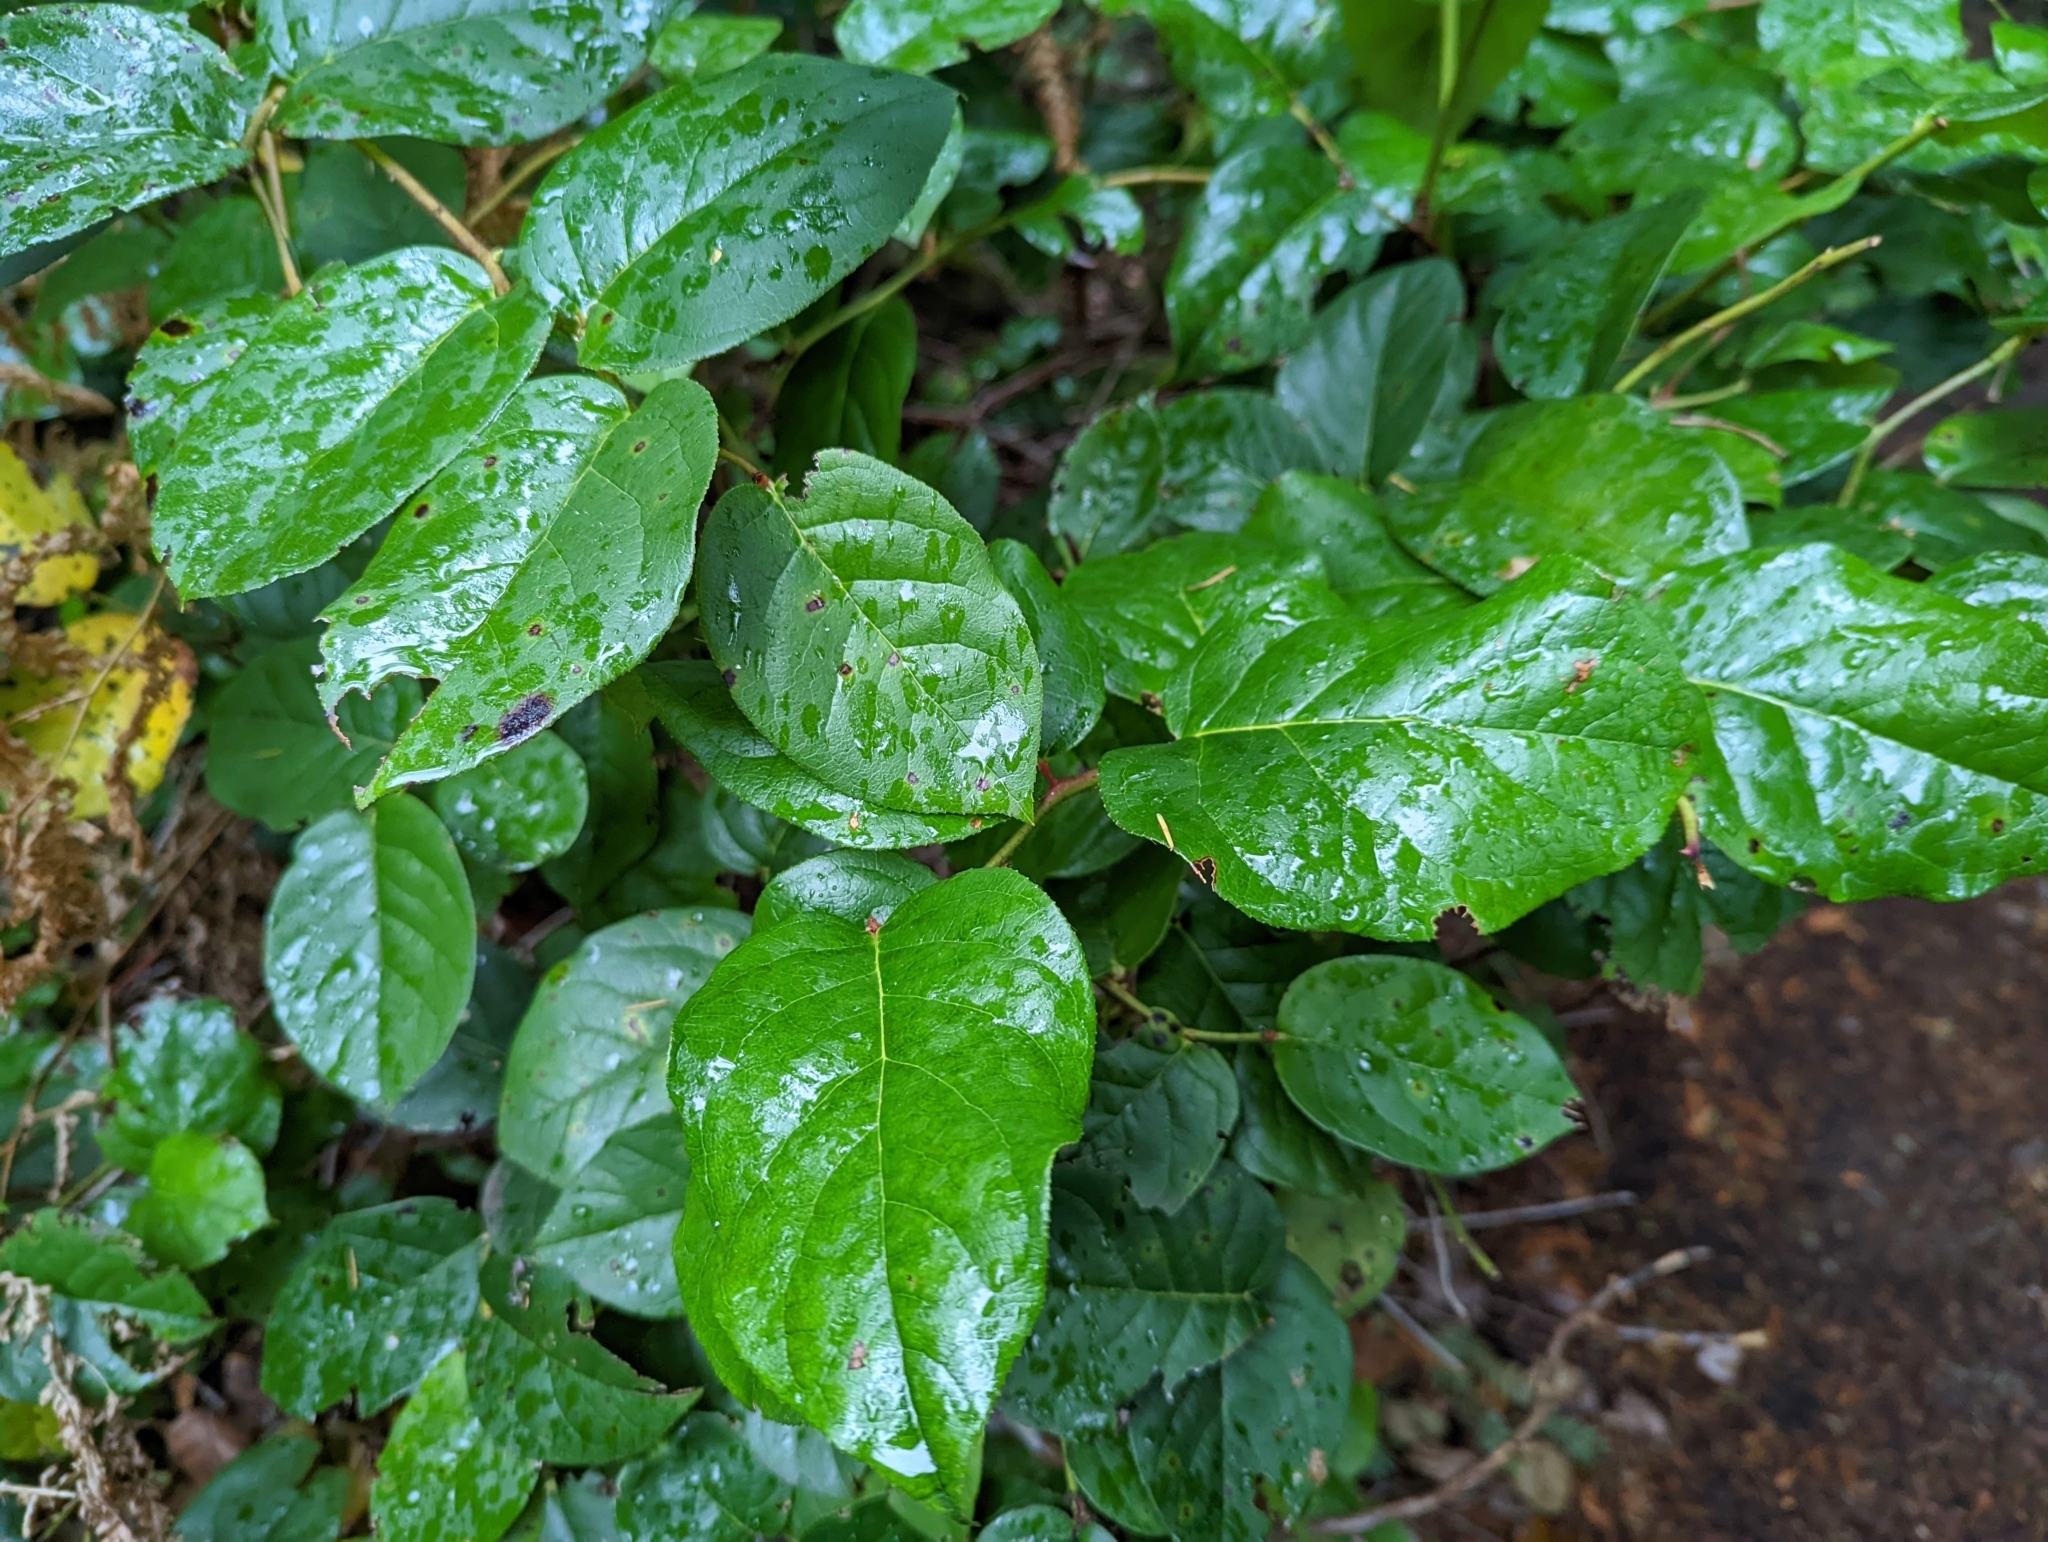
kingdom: Plantae
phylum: Tracheophyta
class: Magnoliopsida
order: Ericales
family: Ericaceae
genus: Gaultheria
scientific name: Gaultheria shallon
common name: Shallon
